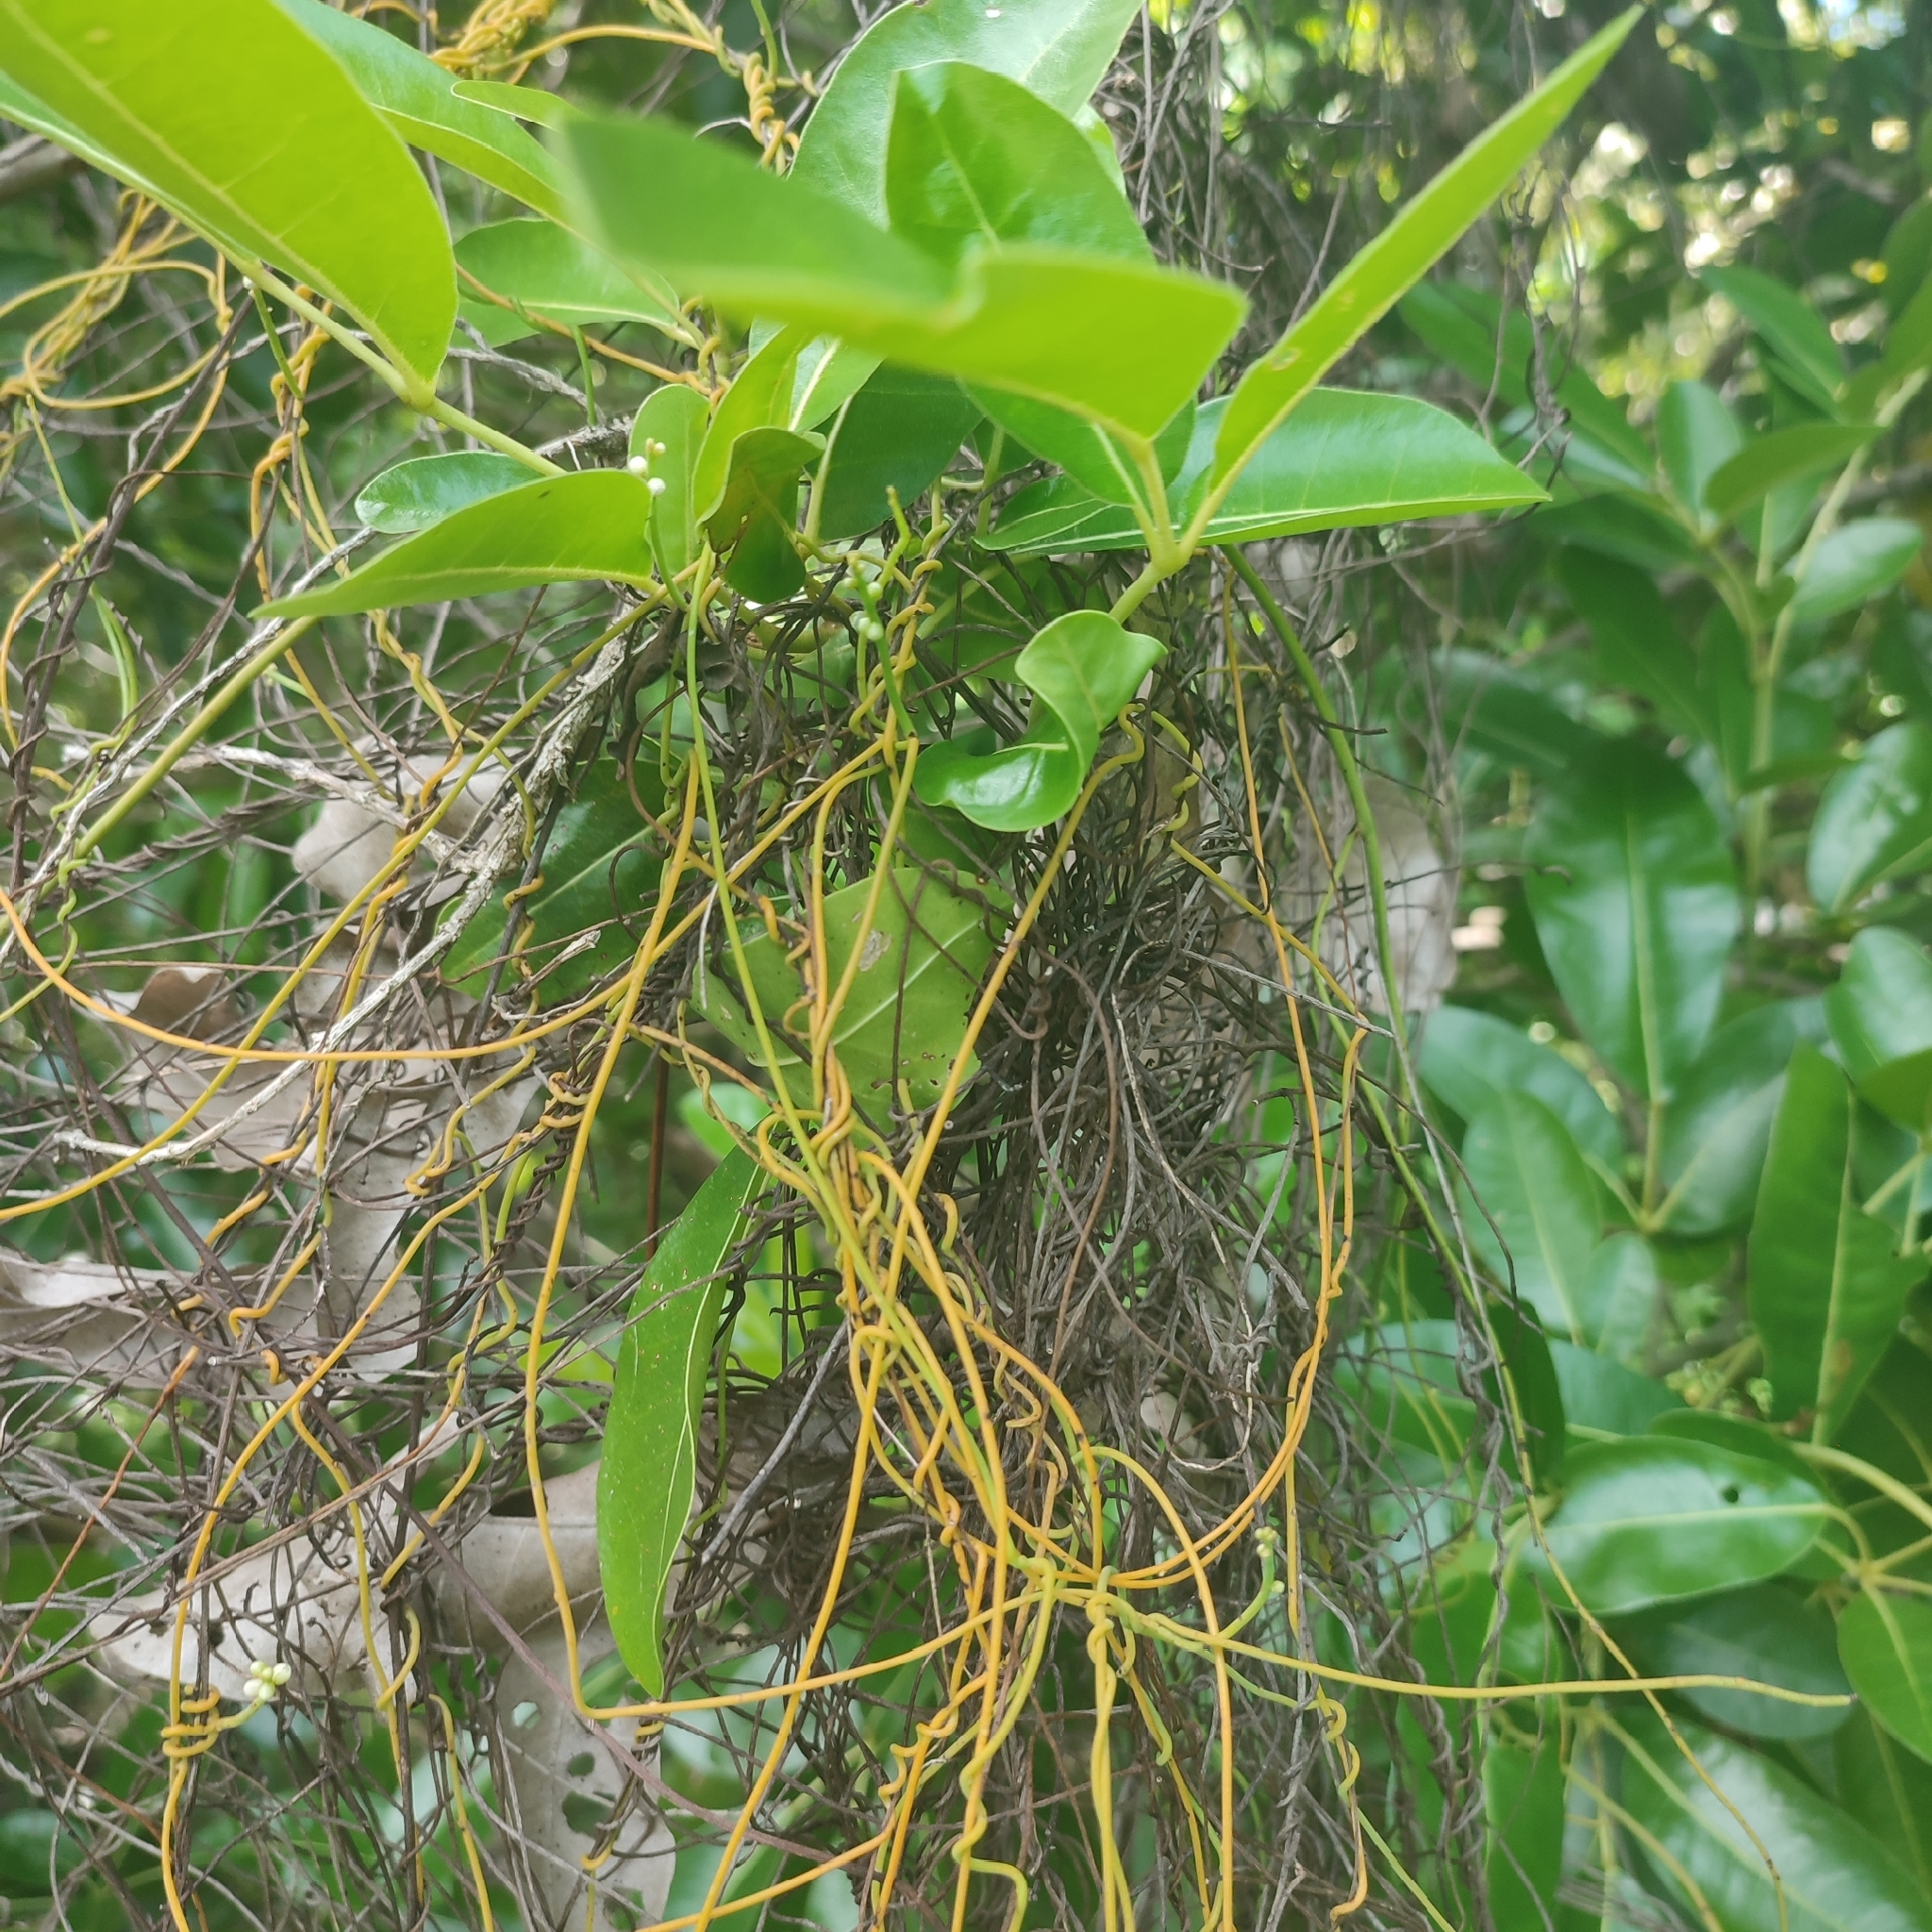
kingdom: Plantae
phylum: Tracheophyta
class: Magnoliopsida
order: Laurales
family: Lauraceae
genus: Cassytha
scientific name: Cassytha filiformis
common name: Dodder-laurel
